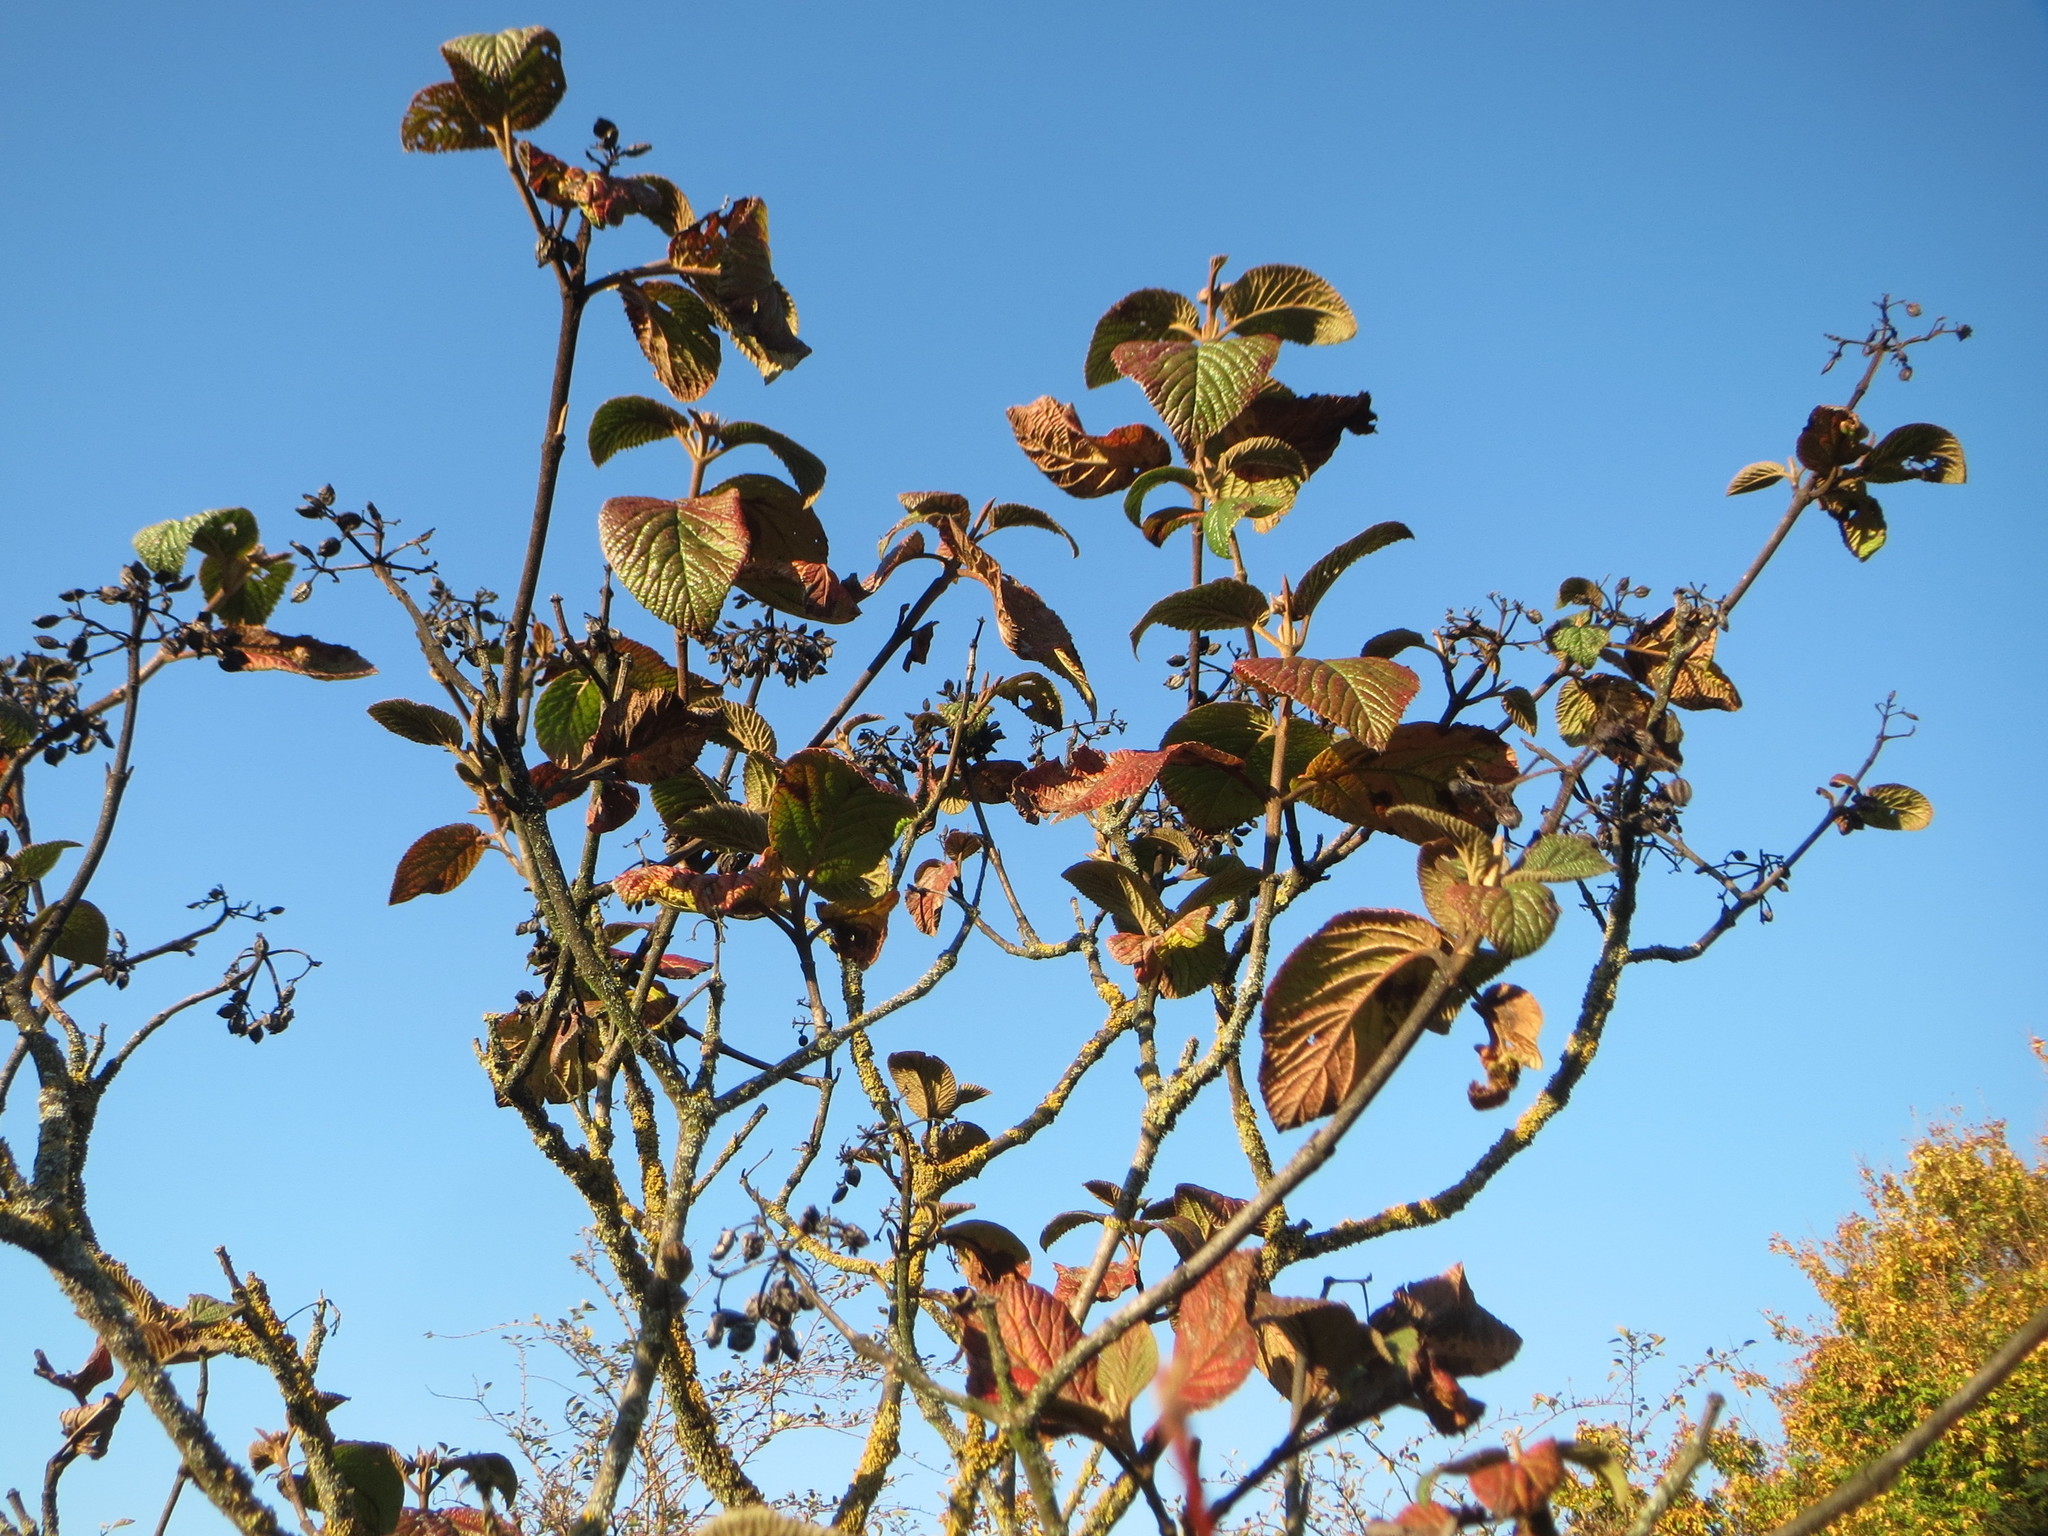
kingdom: Plantae
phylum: Tracheophyta
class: Magnoliopsida
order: Dipsacales
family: Viburnaceae
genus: Viburnum
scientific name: Viburnum lantana
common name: Wayfaring tree
